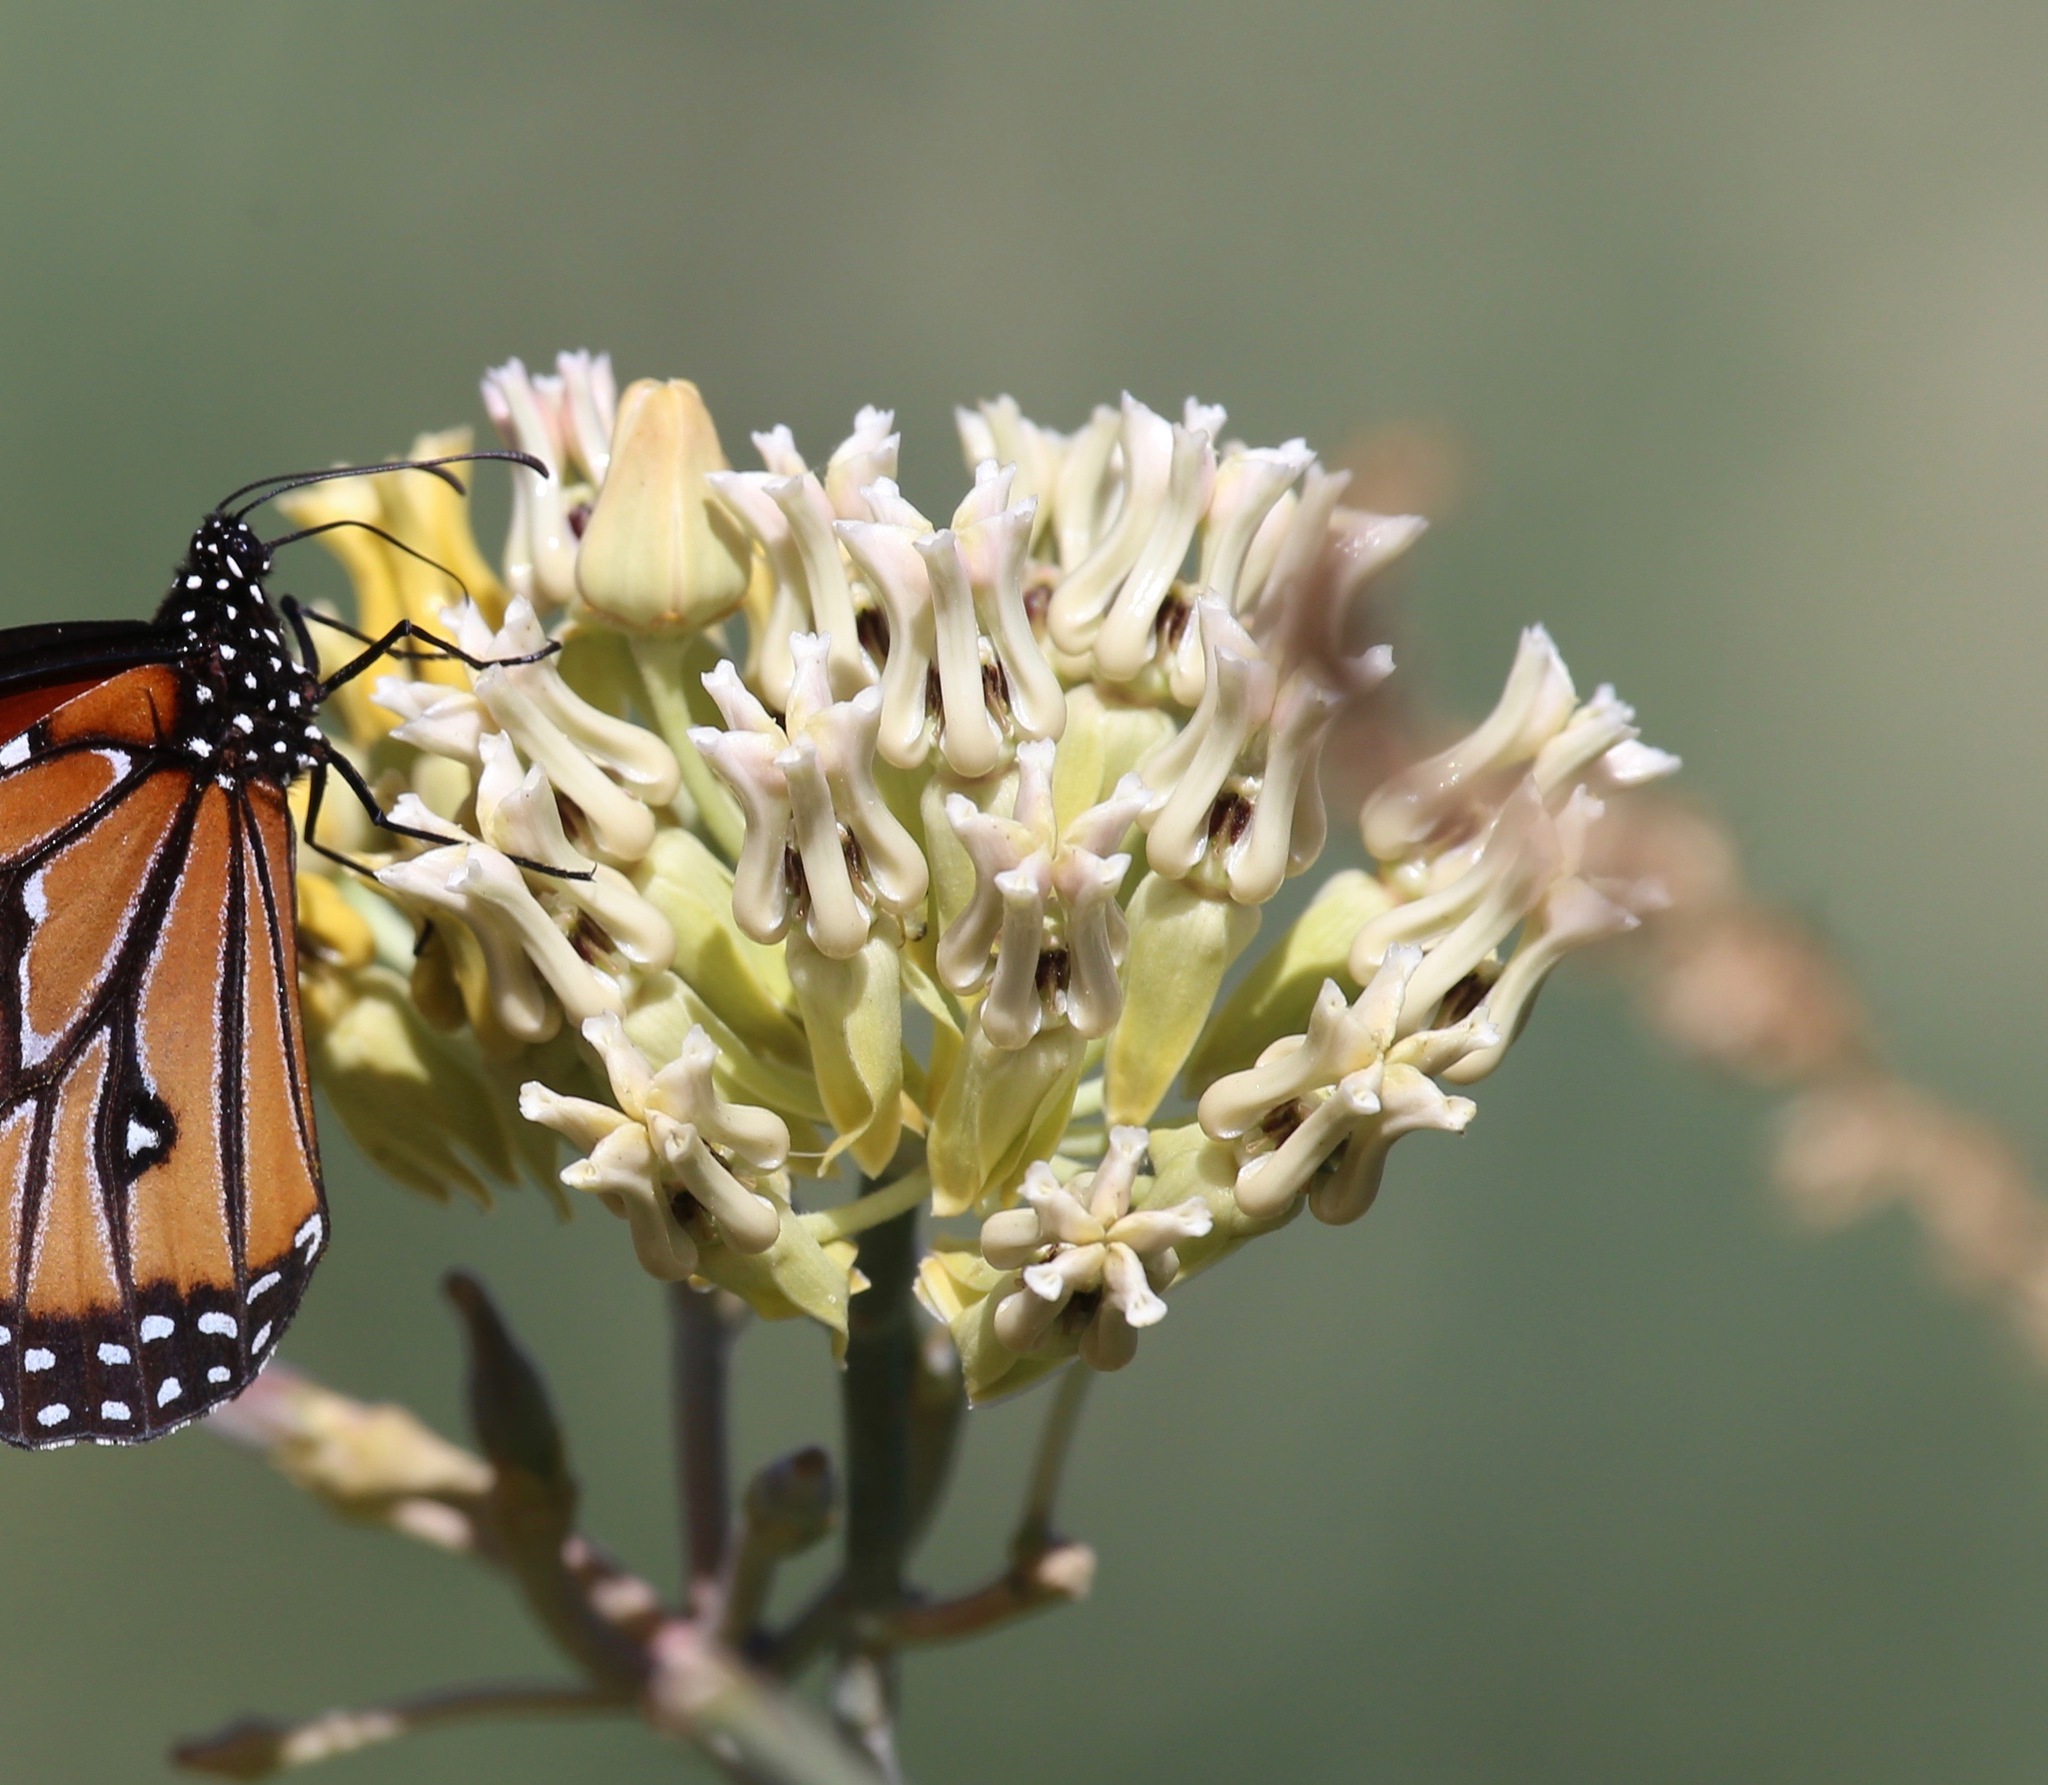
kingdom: Plantae
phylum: Tracheophyta
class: Magnoliopsida
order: Gentianales
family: Apocynaceae
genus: Asclepias
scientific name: Asclepias subulata
